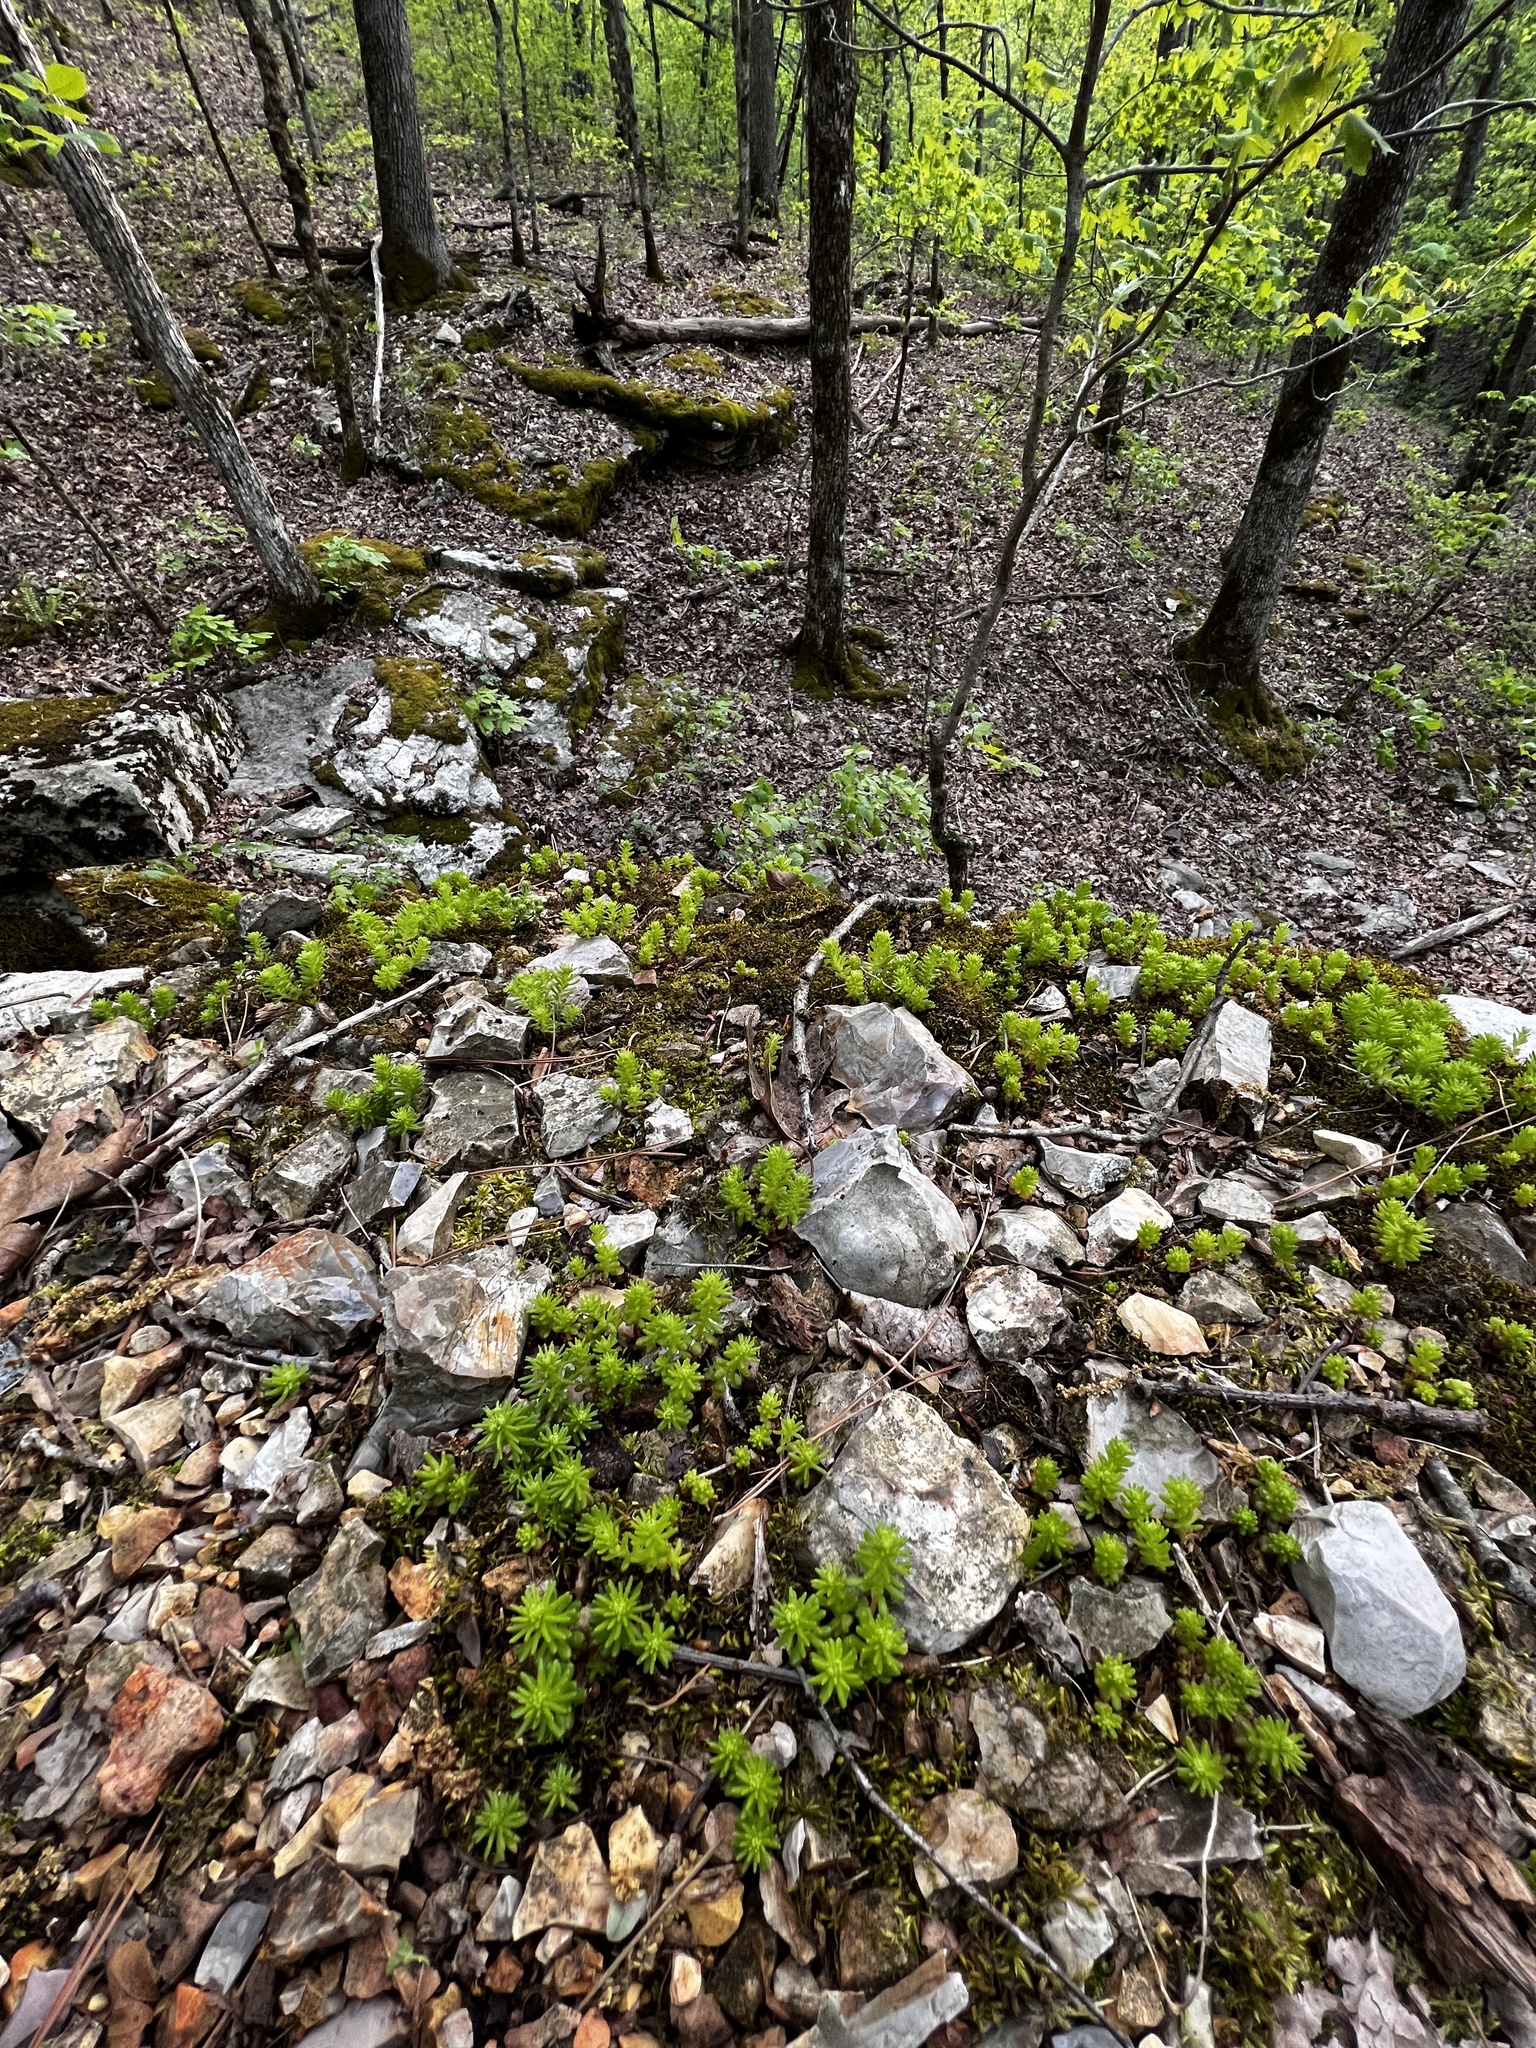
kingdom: Plantae
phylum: Tracheophyta
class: Magnoliopsida
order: Saxifragales
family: Crassulaceae
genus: Sedum
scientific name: Sedum pulchellum
